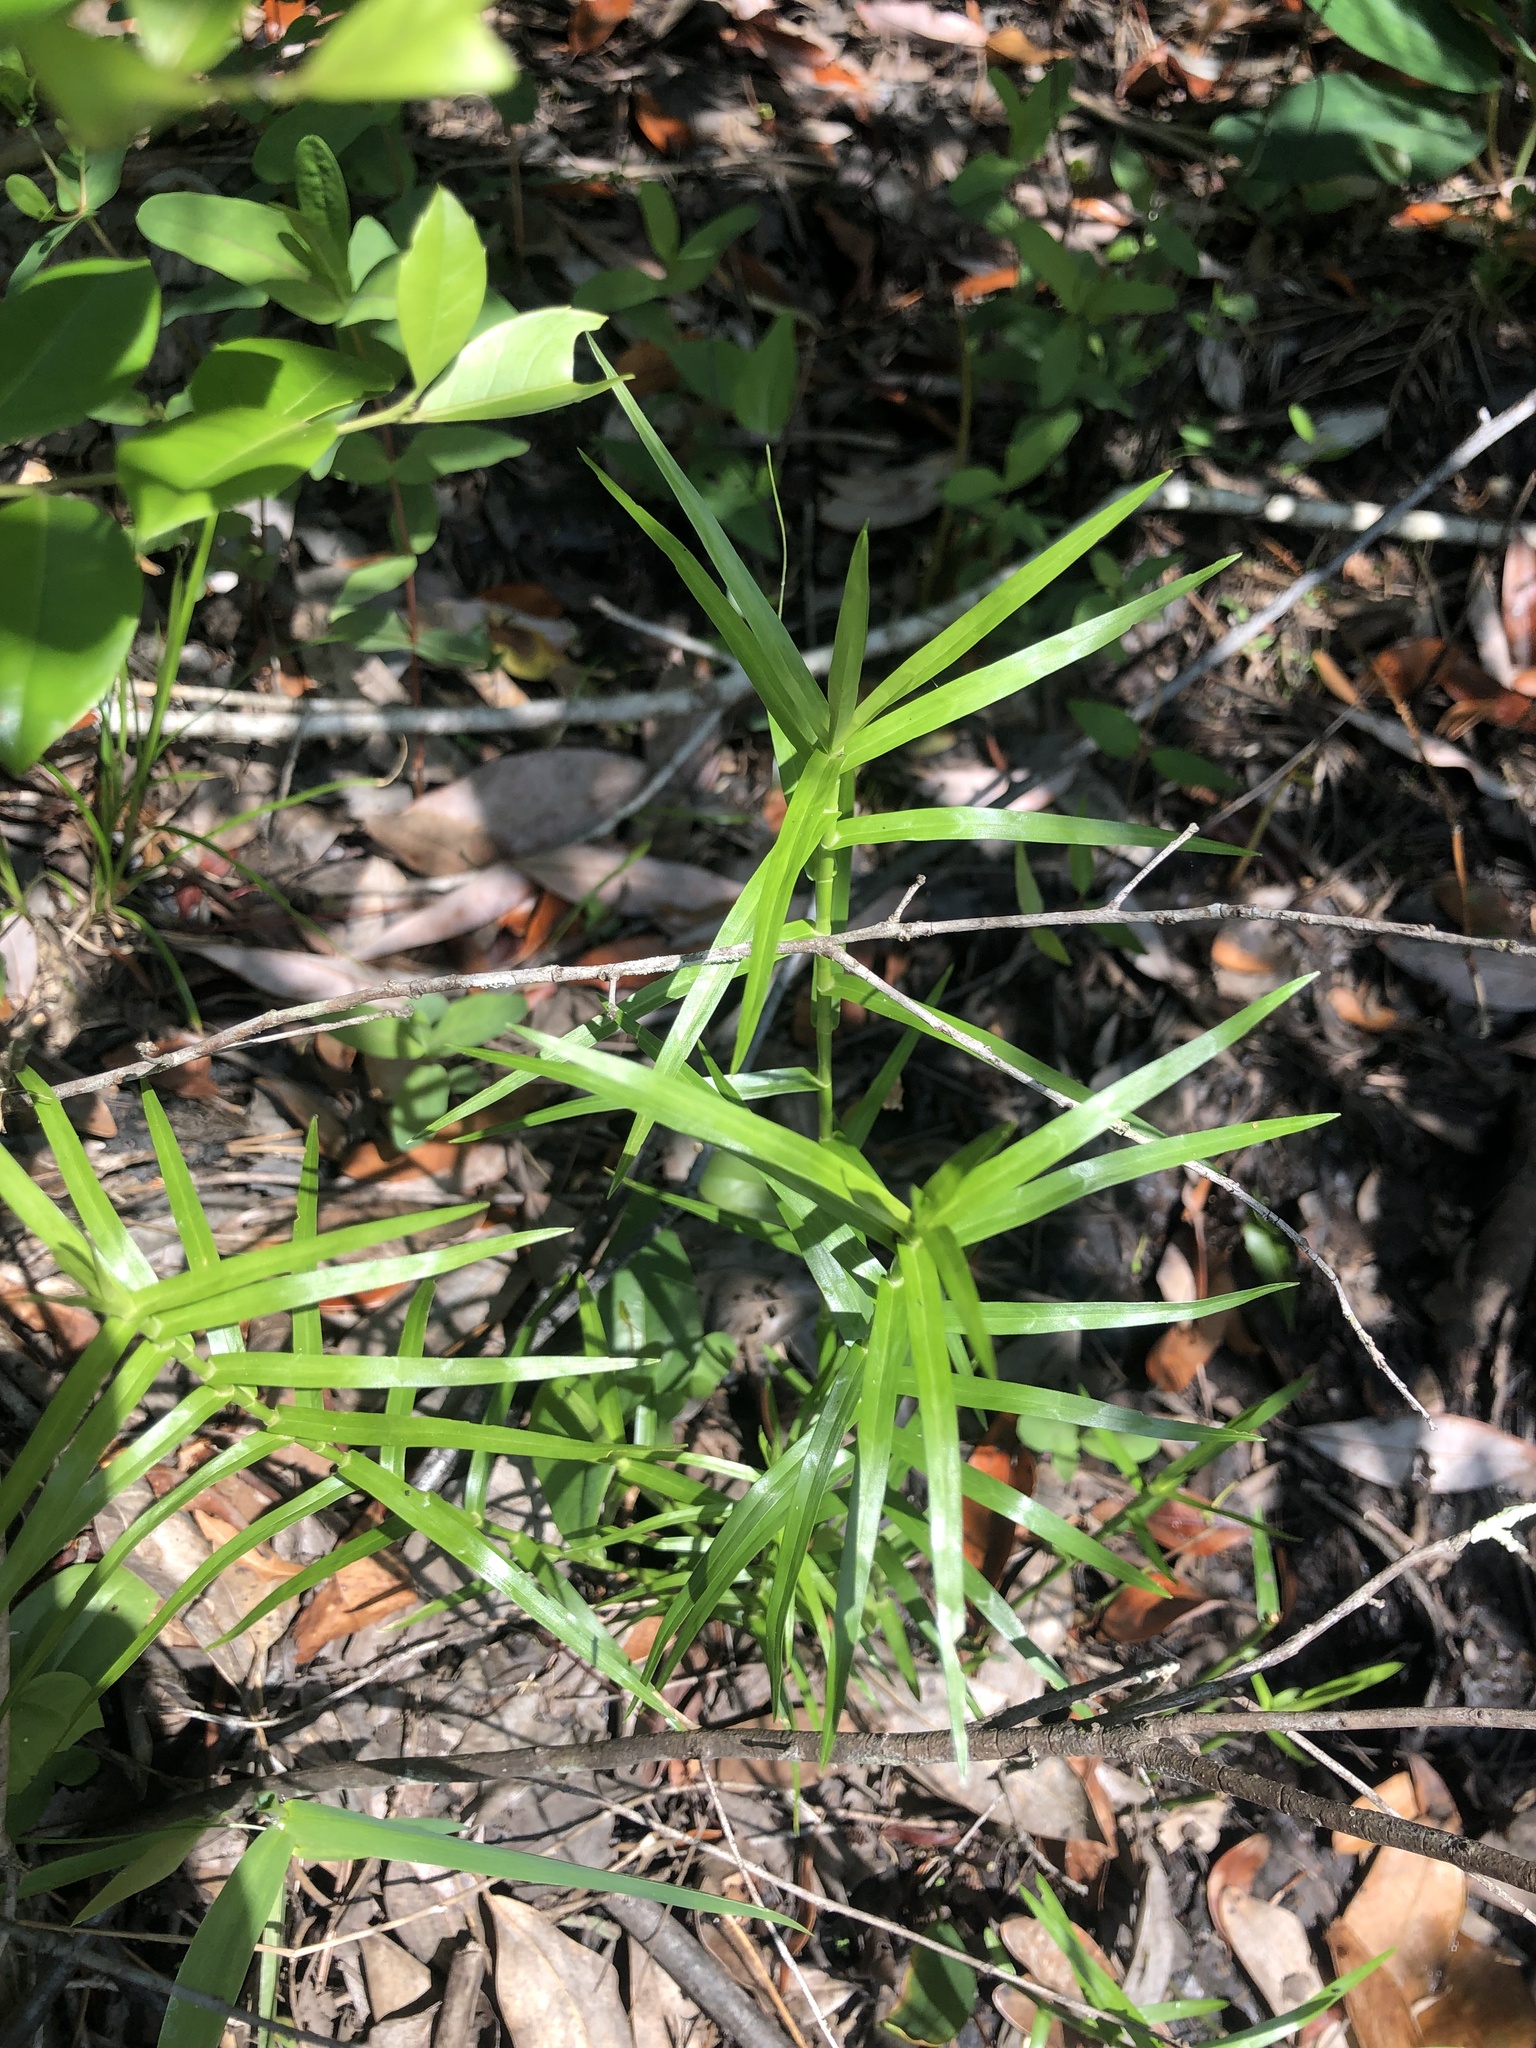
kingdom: Plantae
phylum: Tracheophyta
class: Liliopsida
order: Poales
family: Cyperaceae
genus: Dulichium
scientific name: Dulichium arundinaceum
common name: Three-way sedge
